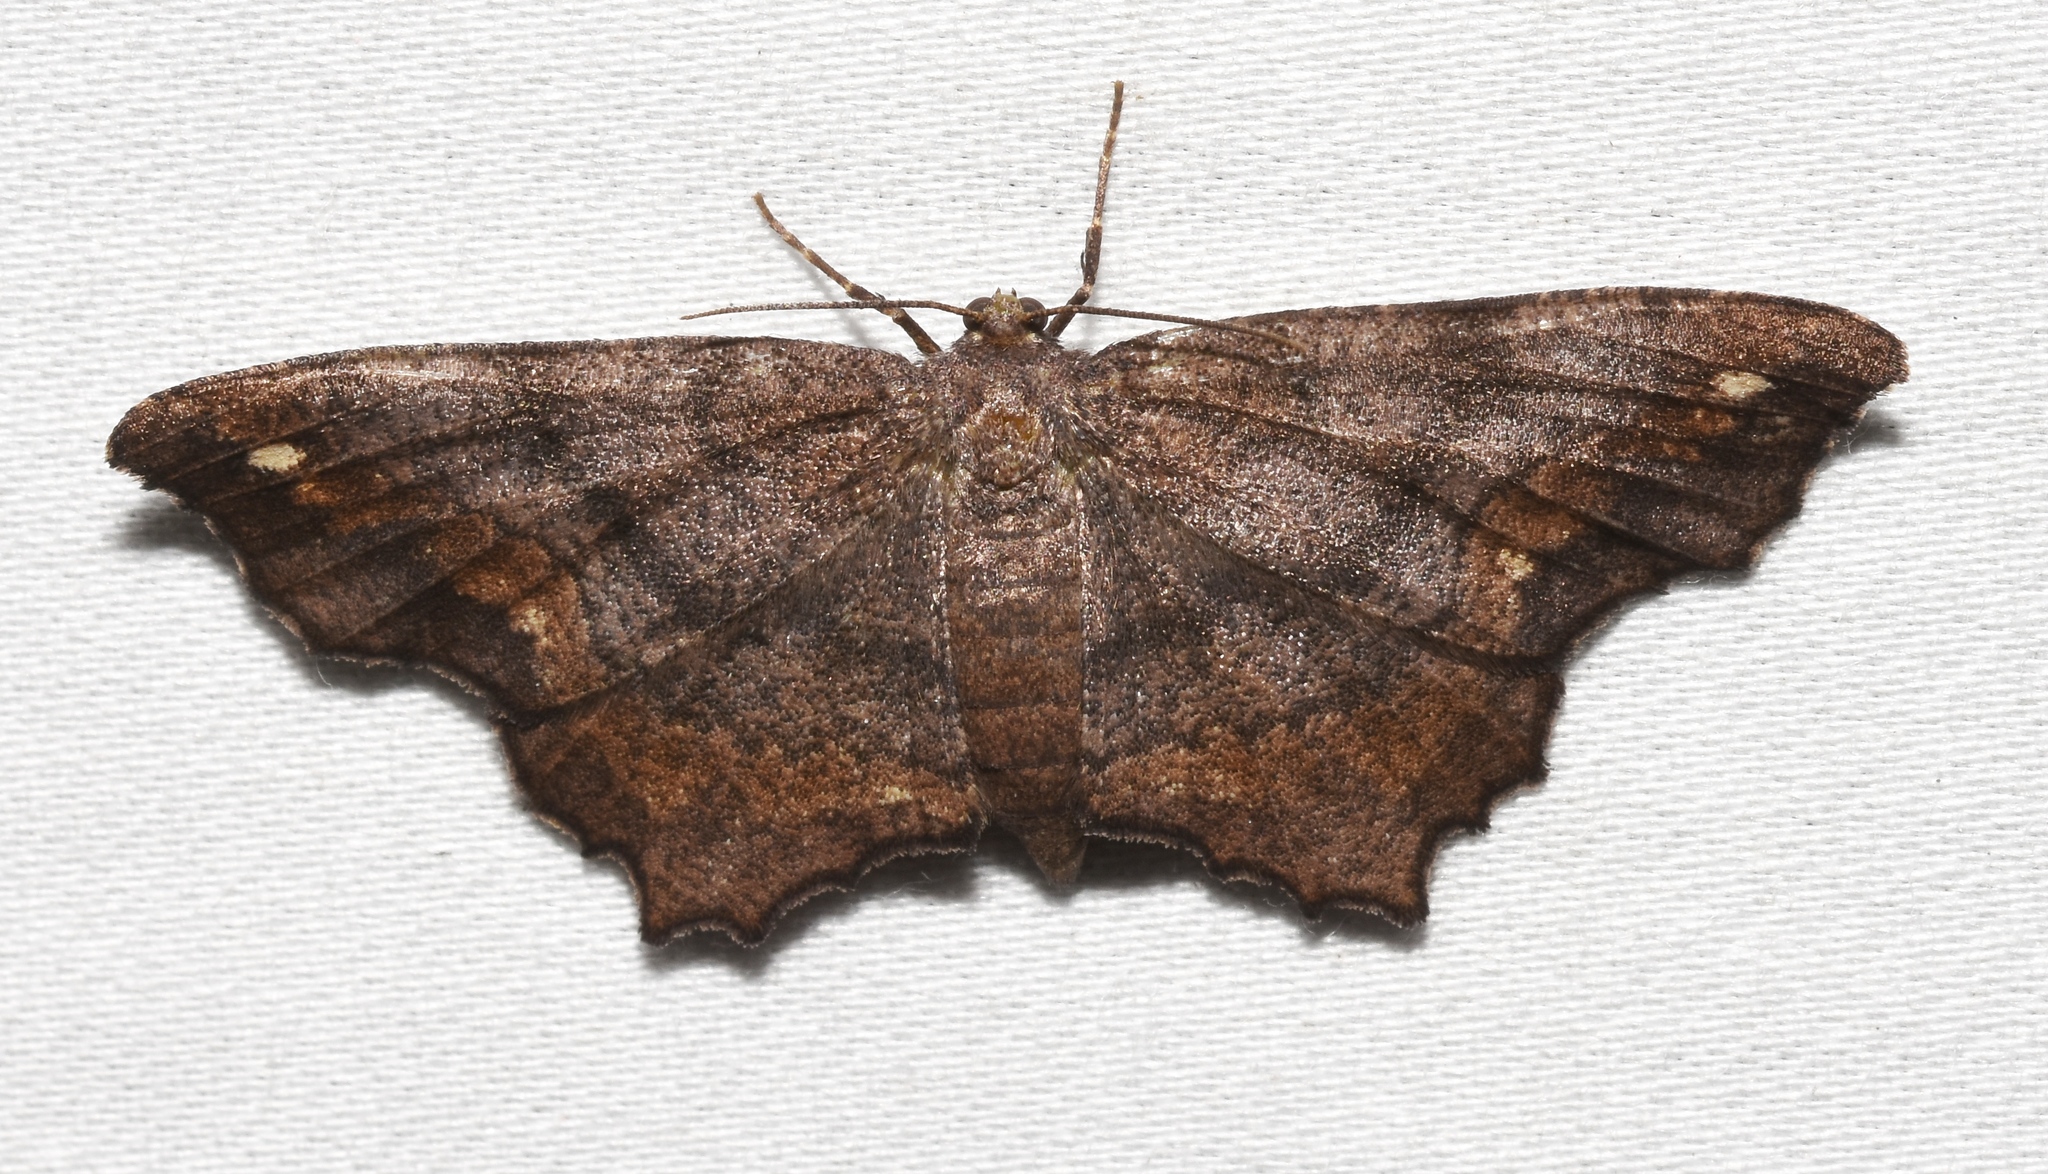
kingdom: Animalia
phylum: Arthropoda
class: Insecta
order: Lepidoptera
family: Geometridae
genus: Hypagyrtis
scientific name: Hypagyrtis esther
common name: Esther moth
